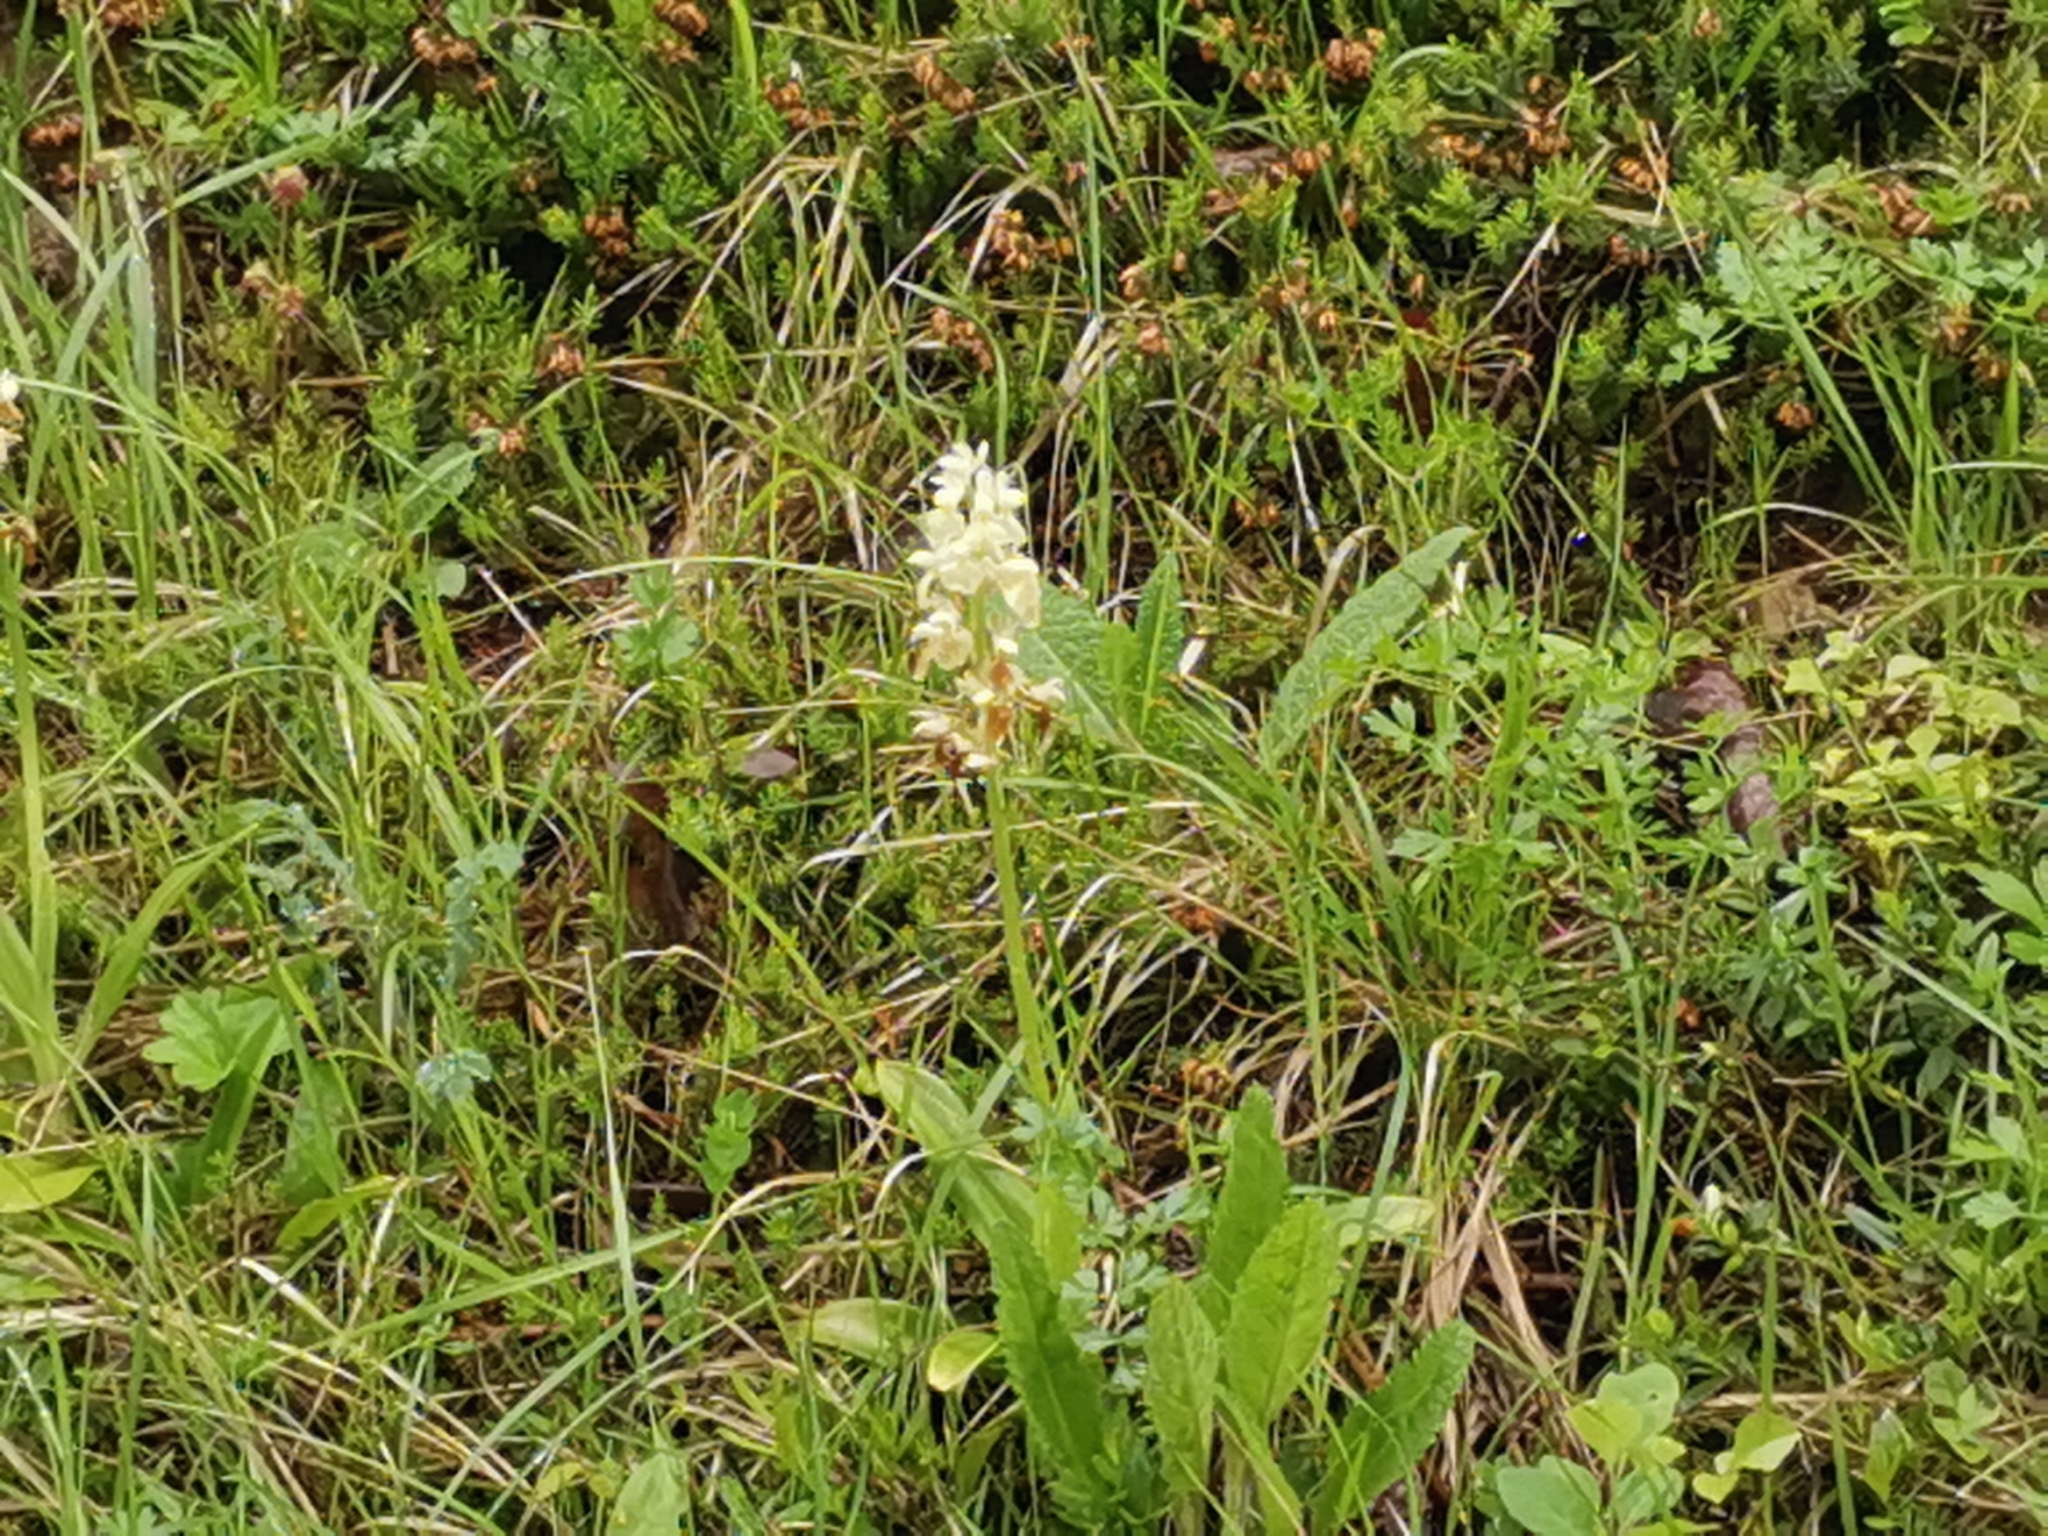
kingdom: Plantae
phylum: Tracheophyta
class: Liliopsida
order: Asparagales
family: Orchidaceae
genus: Orchis
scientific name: Orchis pallens
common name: Pale-flowered orchid
